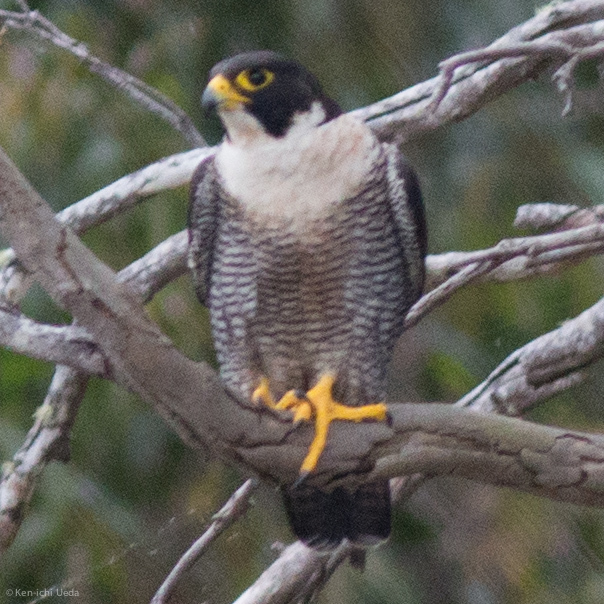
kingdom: Animalia
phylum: Chordata
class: Aves
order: Falconiformes
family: Falconidae
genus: Falco
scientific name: Falco peregrinus
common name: Peregrine falcon
